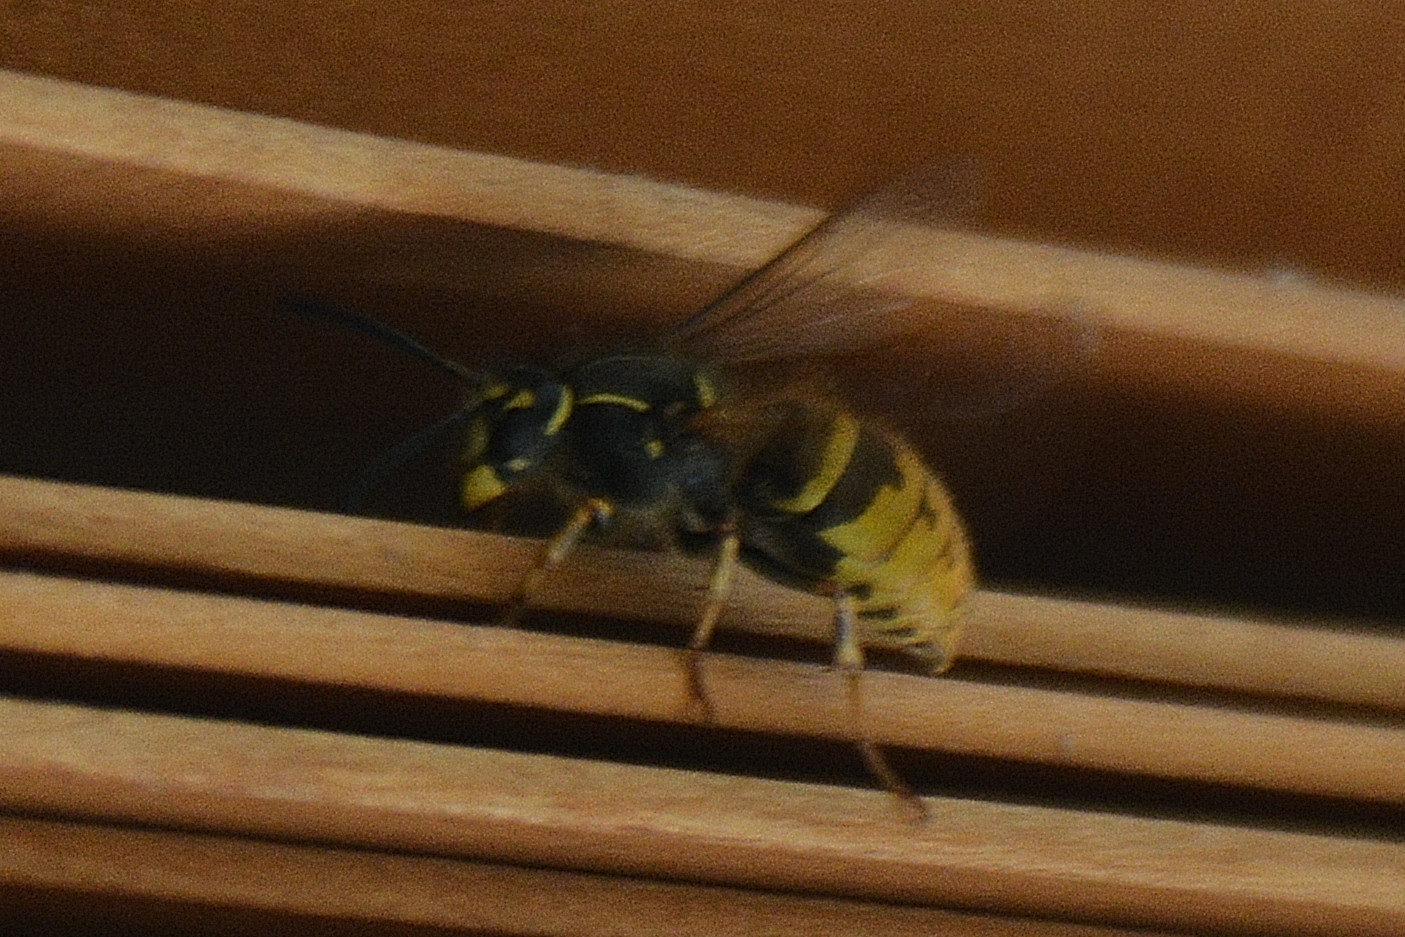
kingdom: Animalia
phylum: Arthropoda
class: Insecta
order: Hymenoptera
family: Vespidae
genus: Vespula
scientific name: Vespula vulgaris
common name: Common wasp
